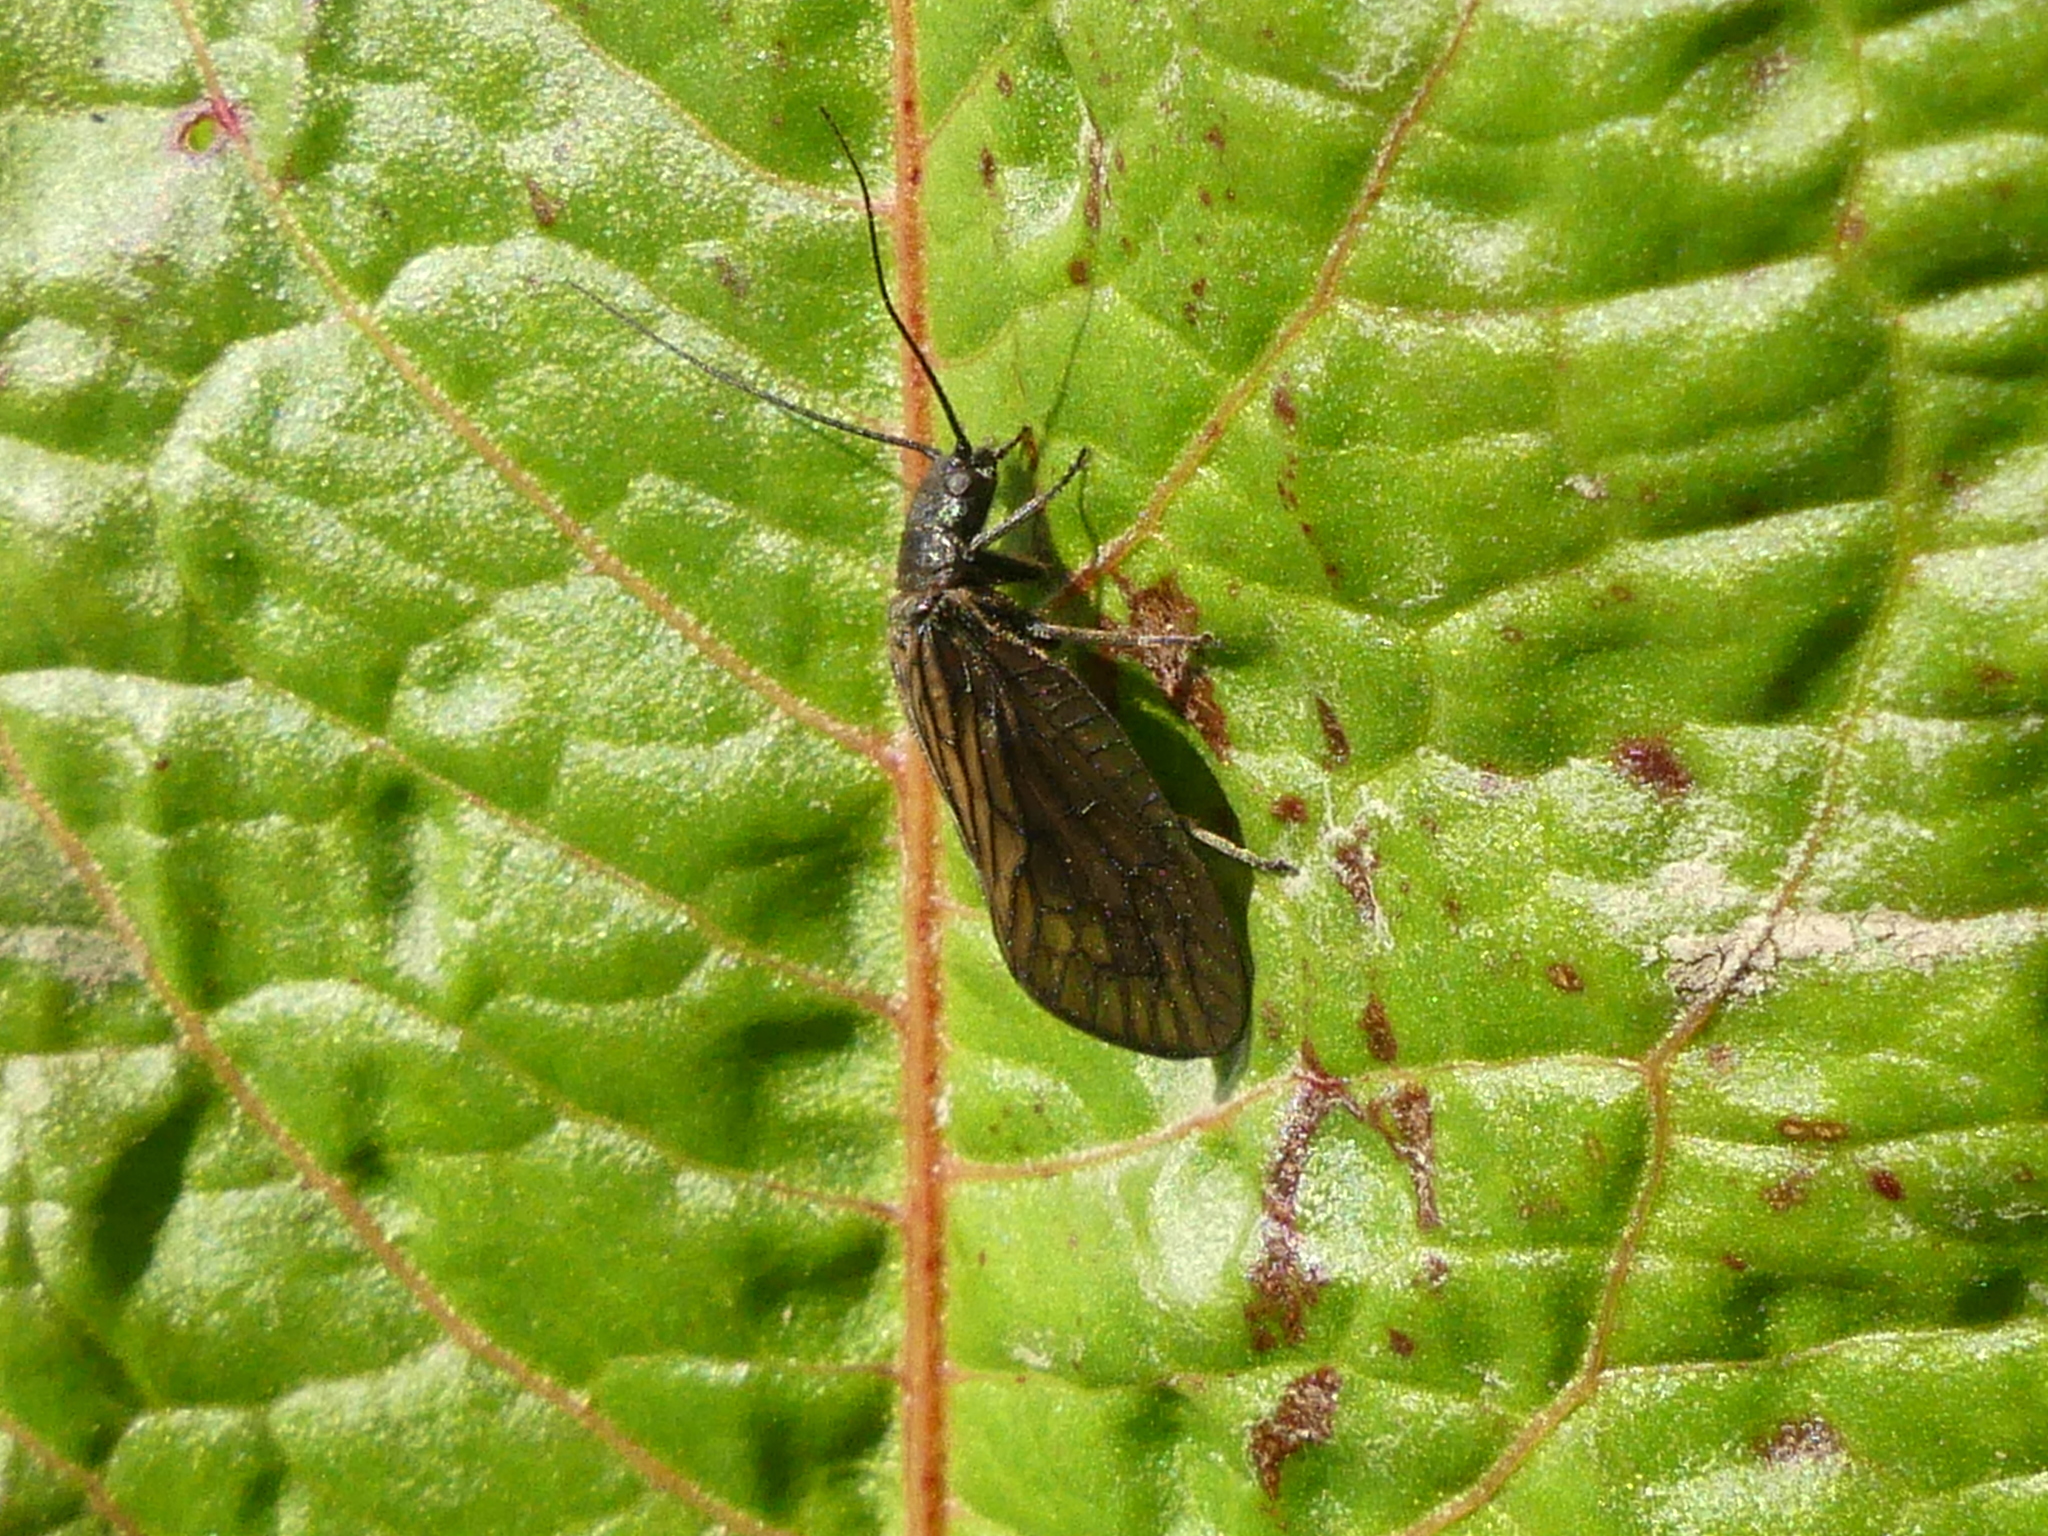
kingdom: Animalia
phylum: Arthropoda
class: Insecta
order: Megaloptera
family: Sialidae
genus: Sialis
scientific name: Sialis
